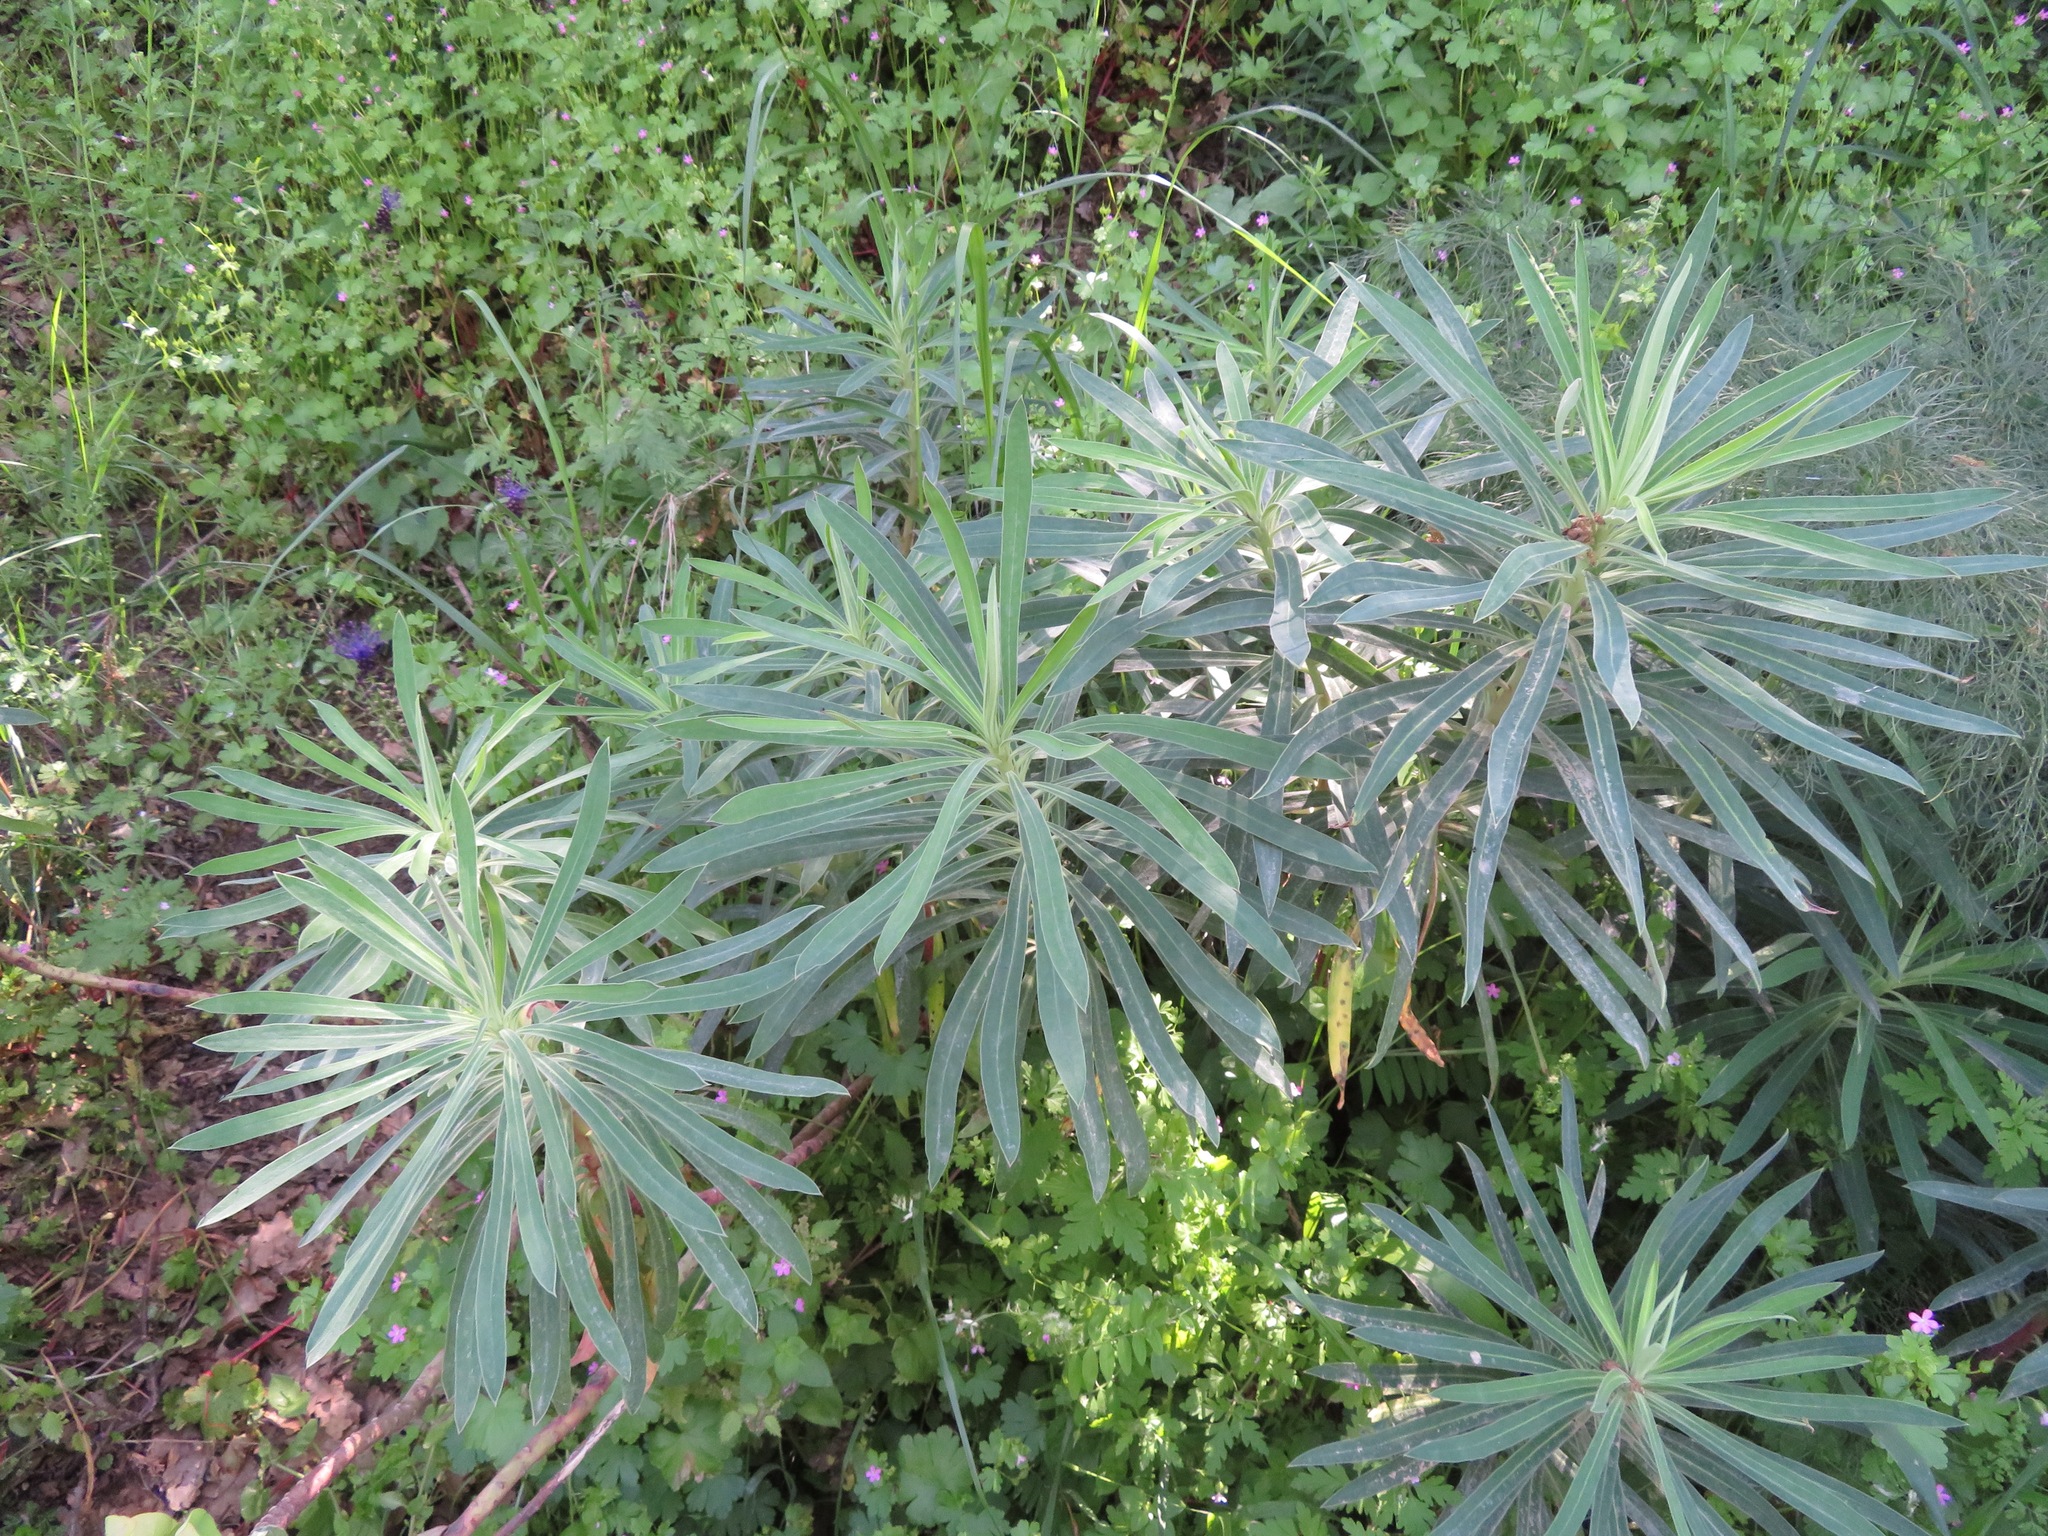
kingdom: Plantae
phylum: Tracheophyta
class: Magnoliopsida
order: Malpighiales
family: Euphorbiaceae
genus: Euphorbia
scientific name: Euphorbia characias
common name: Mediterranean spurge
